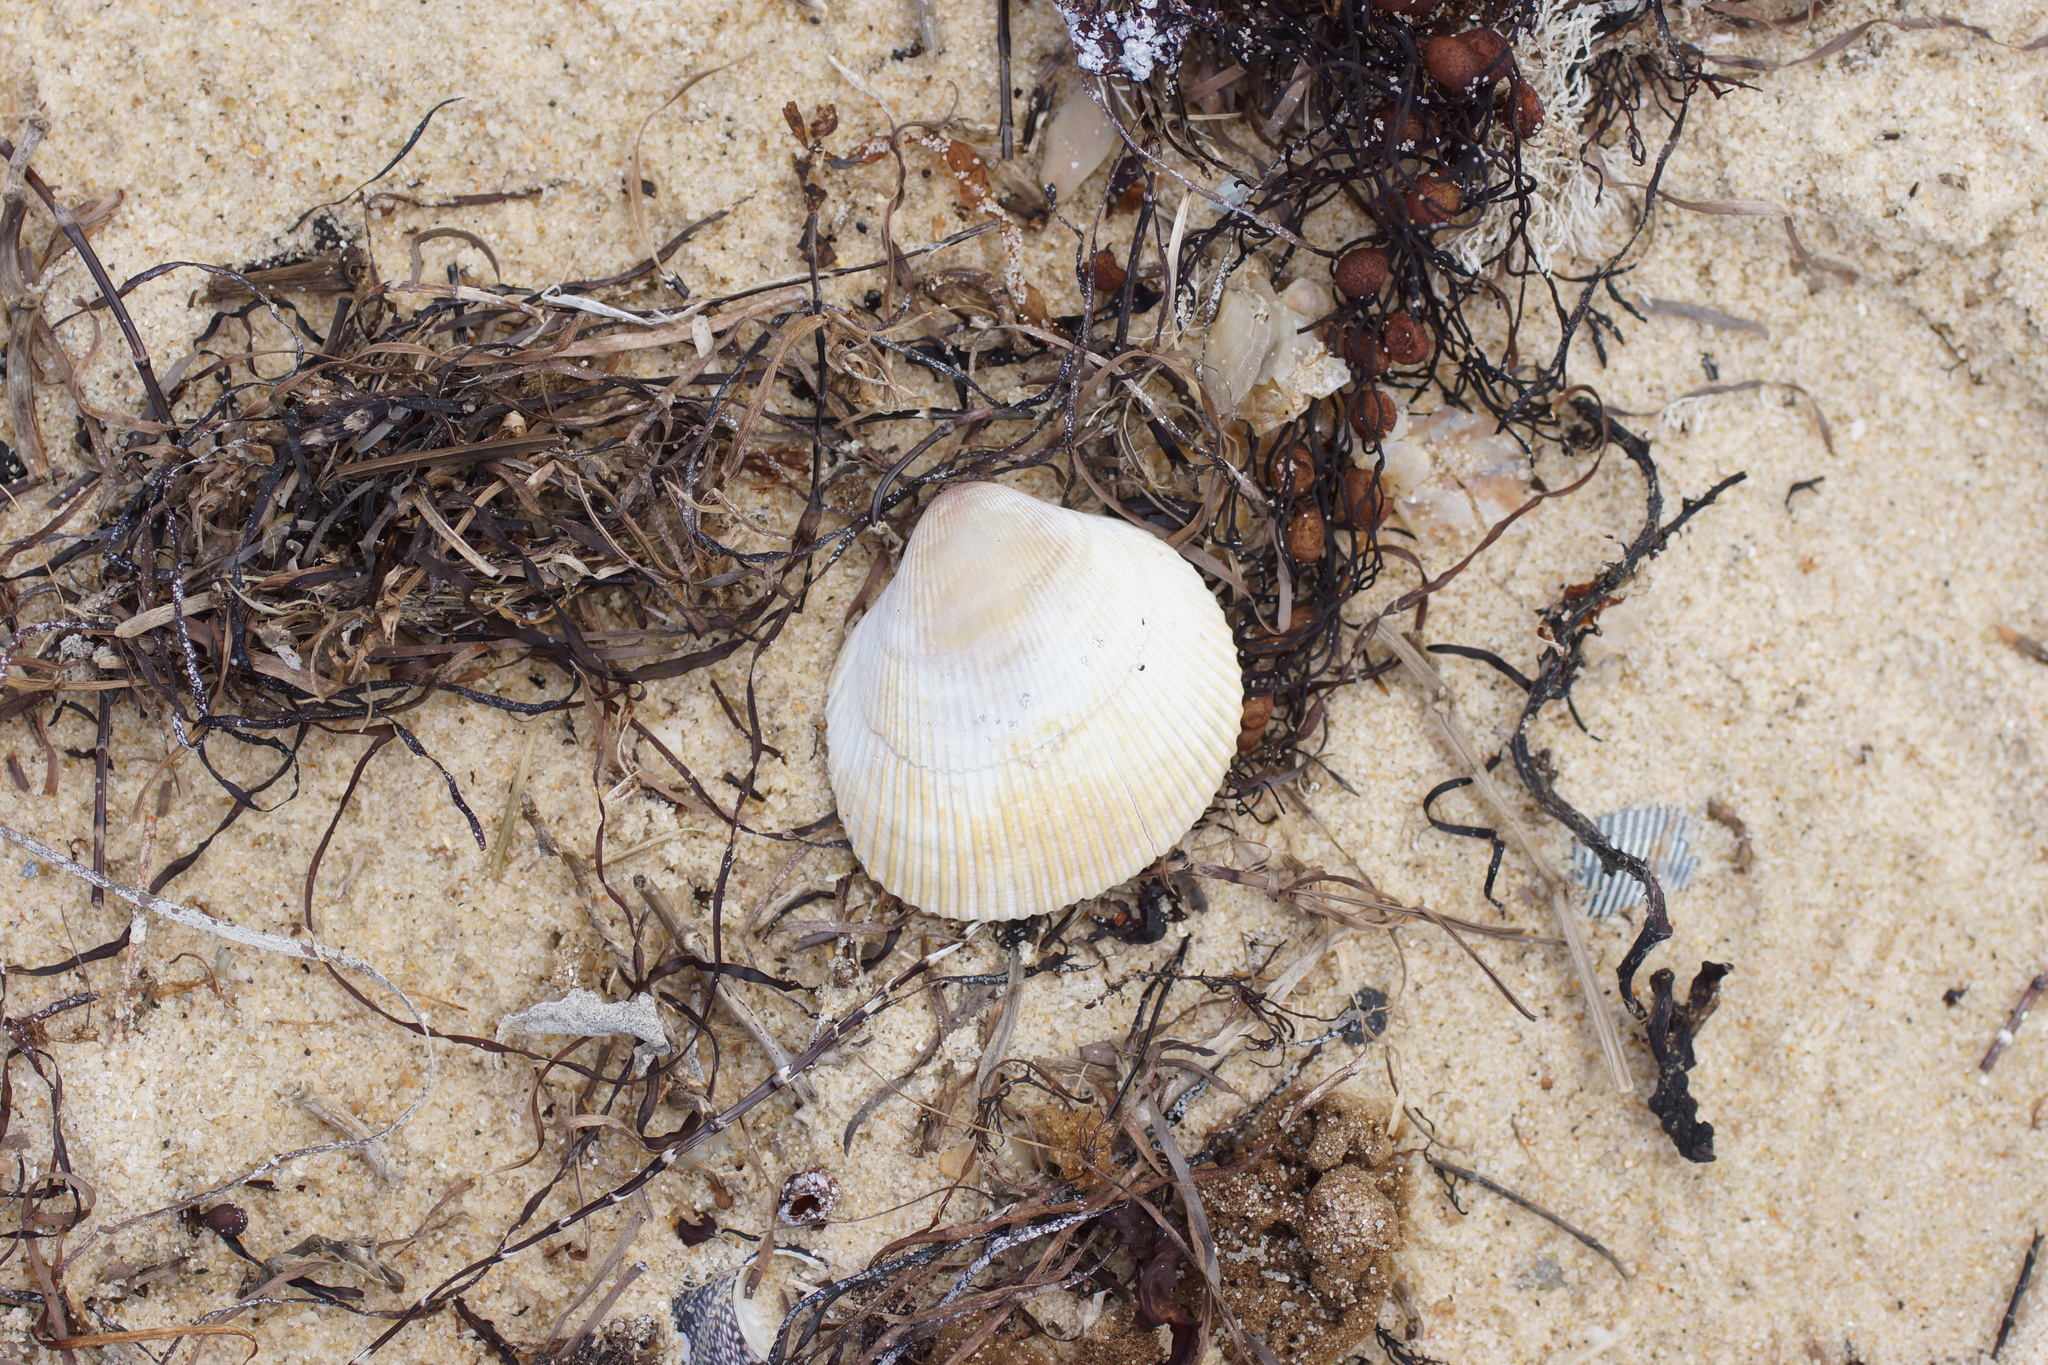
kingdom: Animalia
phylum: Mollusca
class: Bivalvia
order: Cardiida
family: Cardiidae
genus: Fulvia
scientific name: Fulvia tenuicostata
